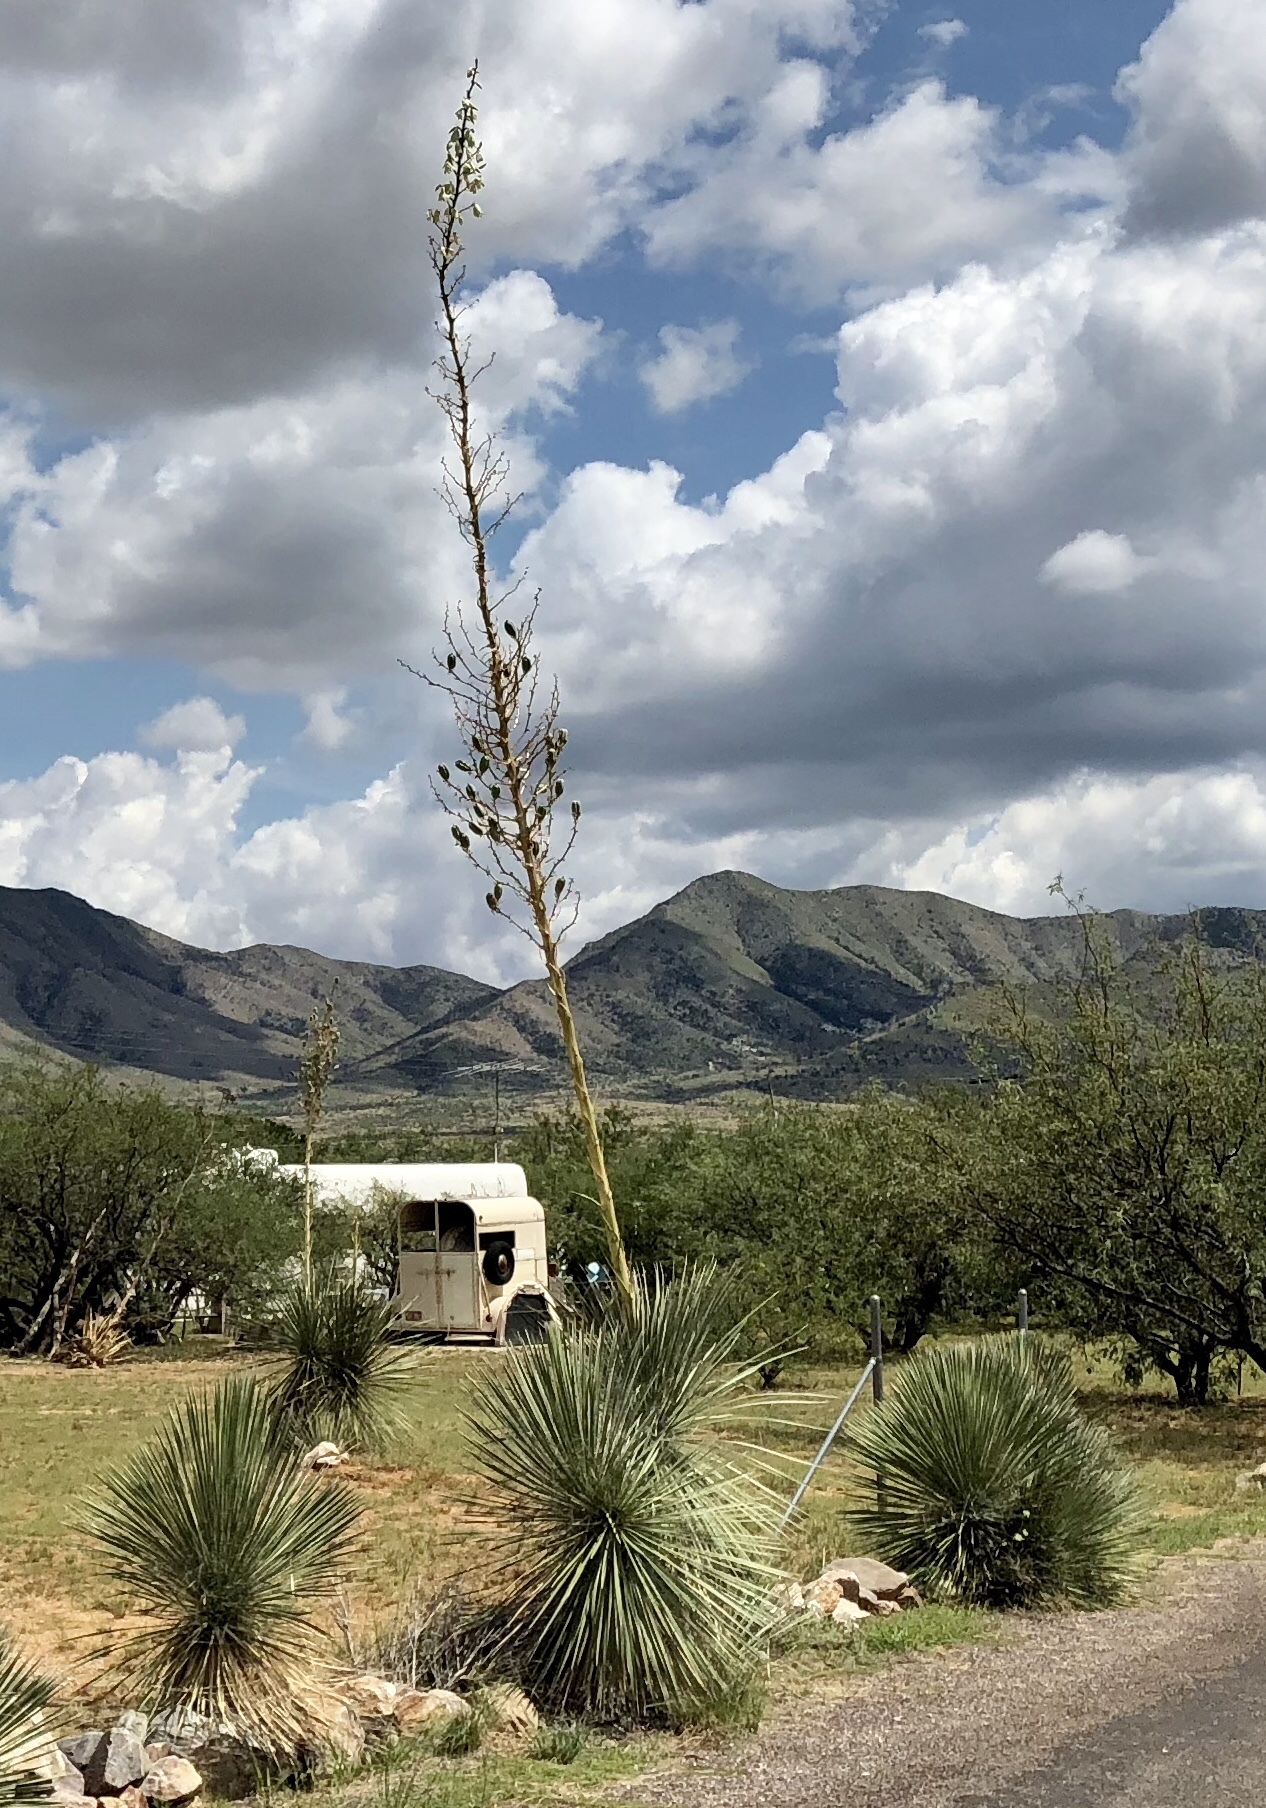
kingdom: Plantae
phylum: Tracheophyta
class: Liliopsida
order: Asparagales
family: Asparagaceae
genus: Yucca
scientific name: Yucca elata
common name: Palmella
